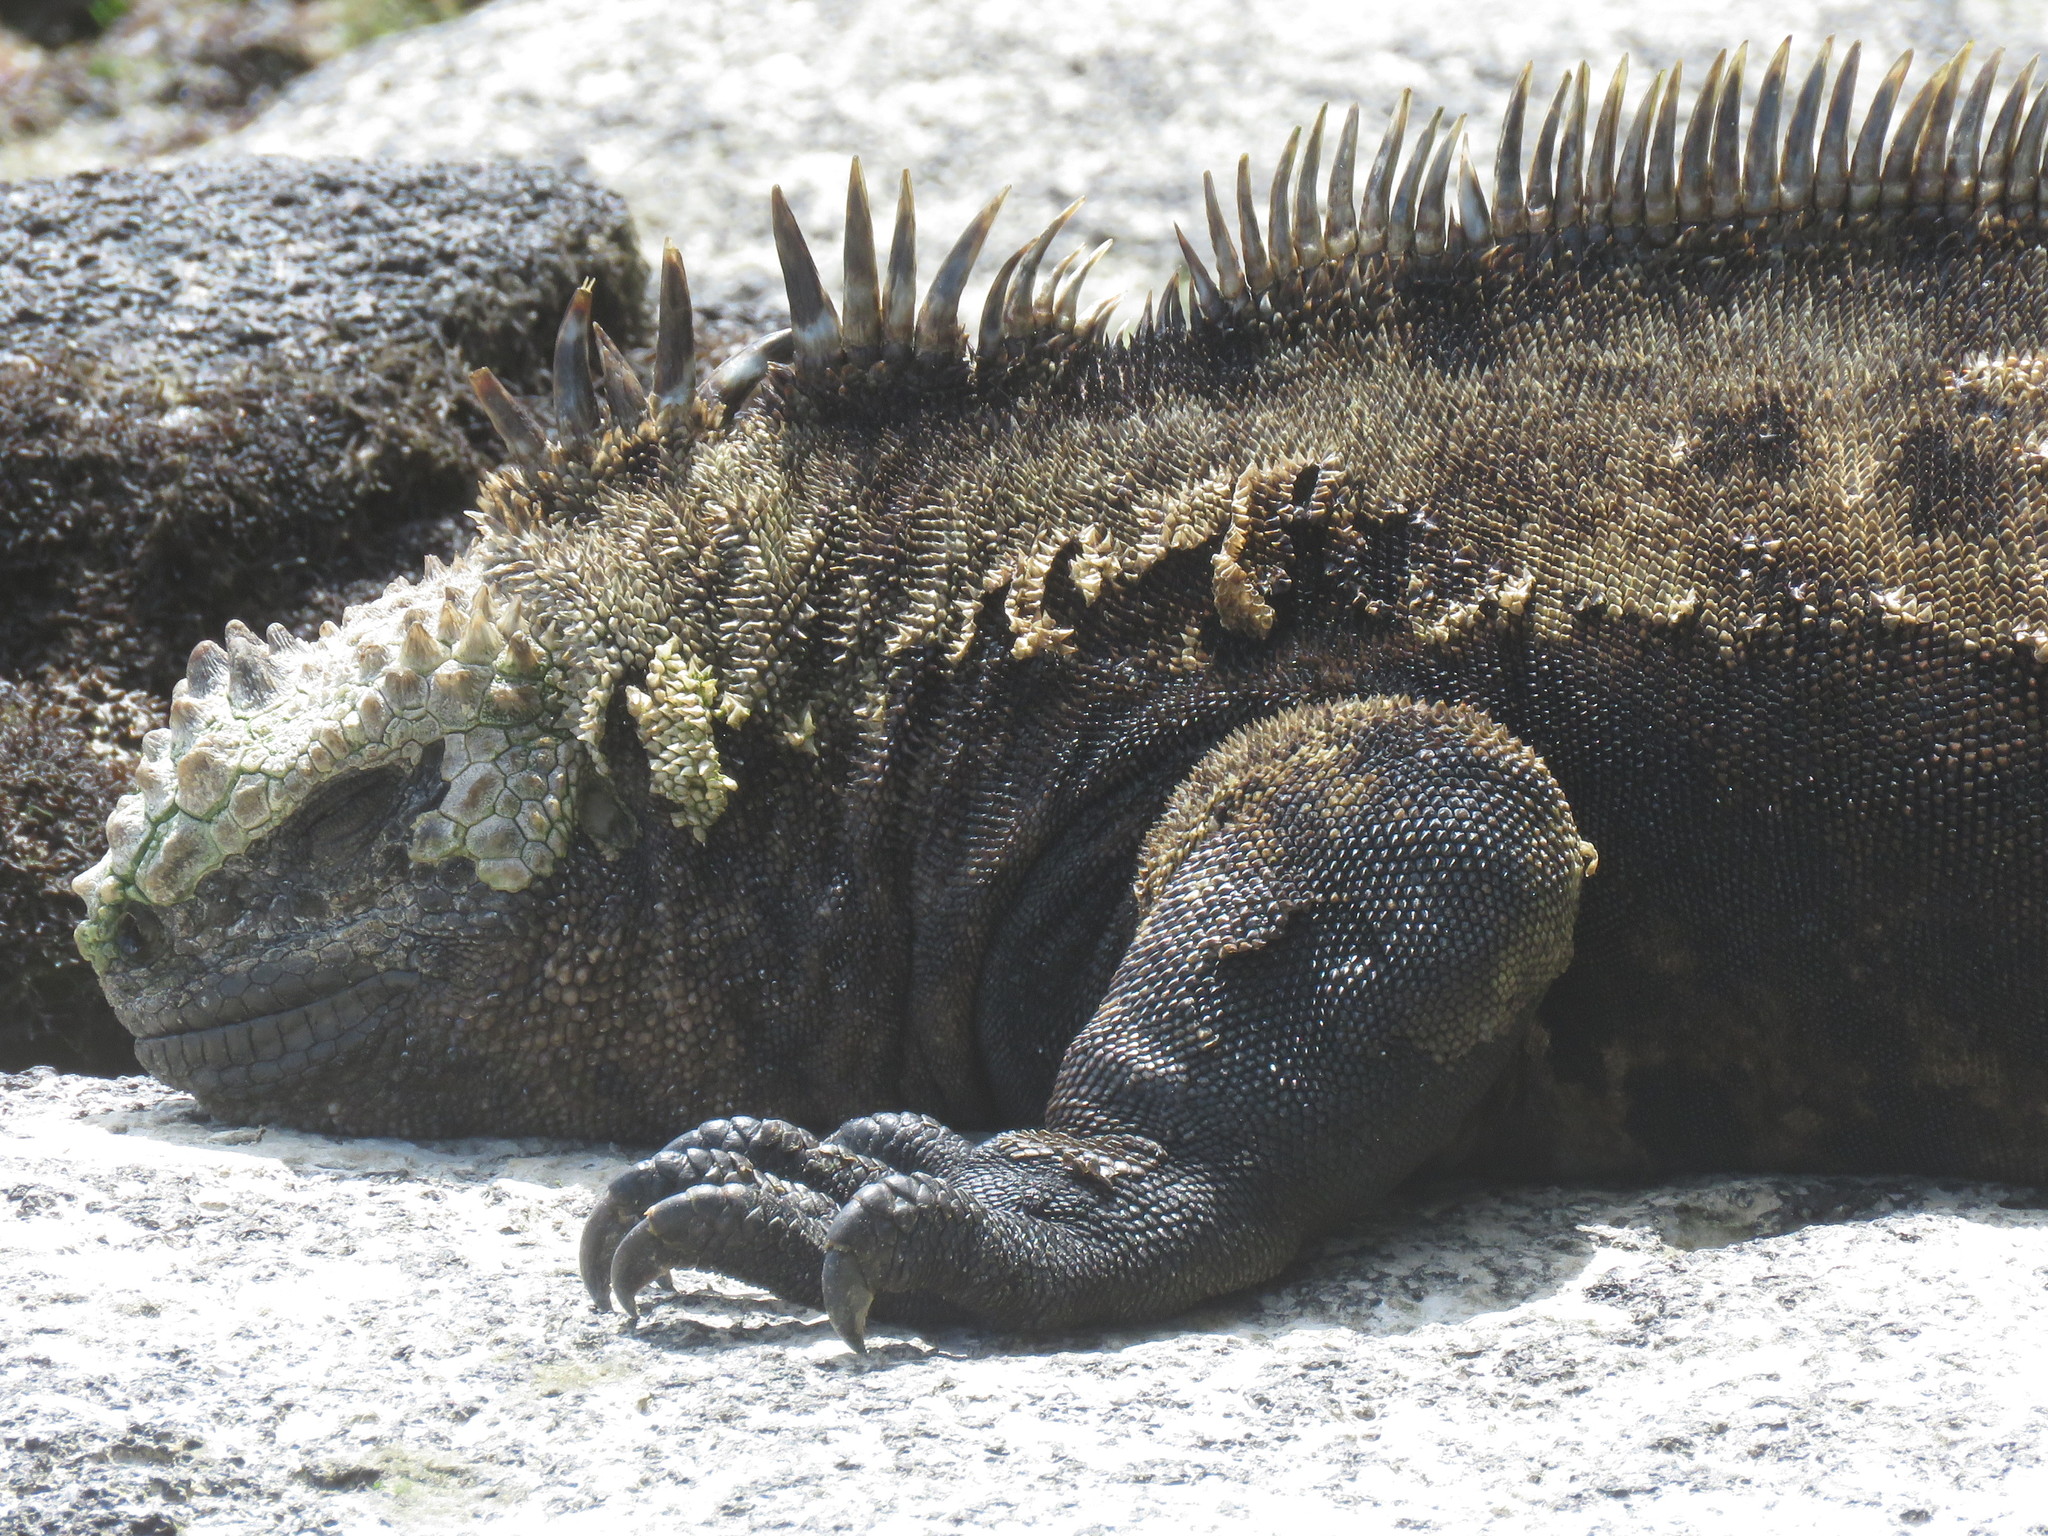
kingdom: Animalia
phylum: Chordata
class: Squamata
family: Iguanidae
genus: Amblyrhynchus
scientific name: Amblyrhynchus cristatus
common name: Marine iguana
